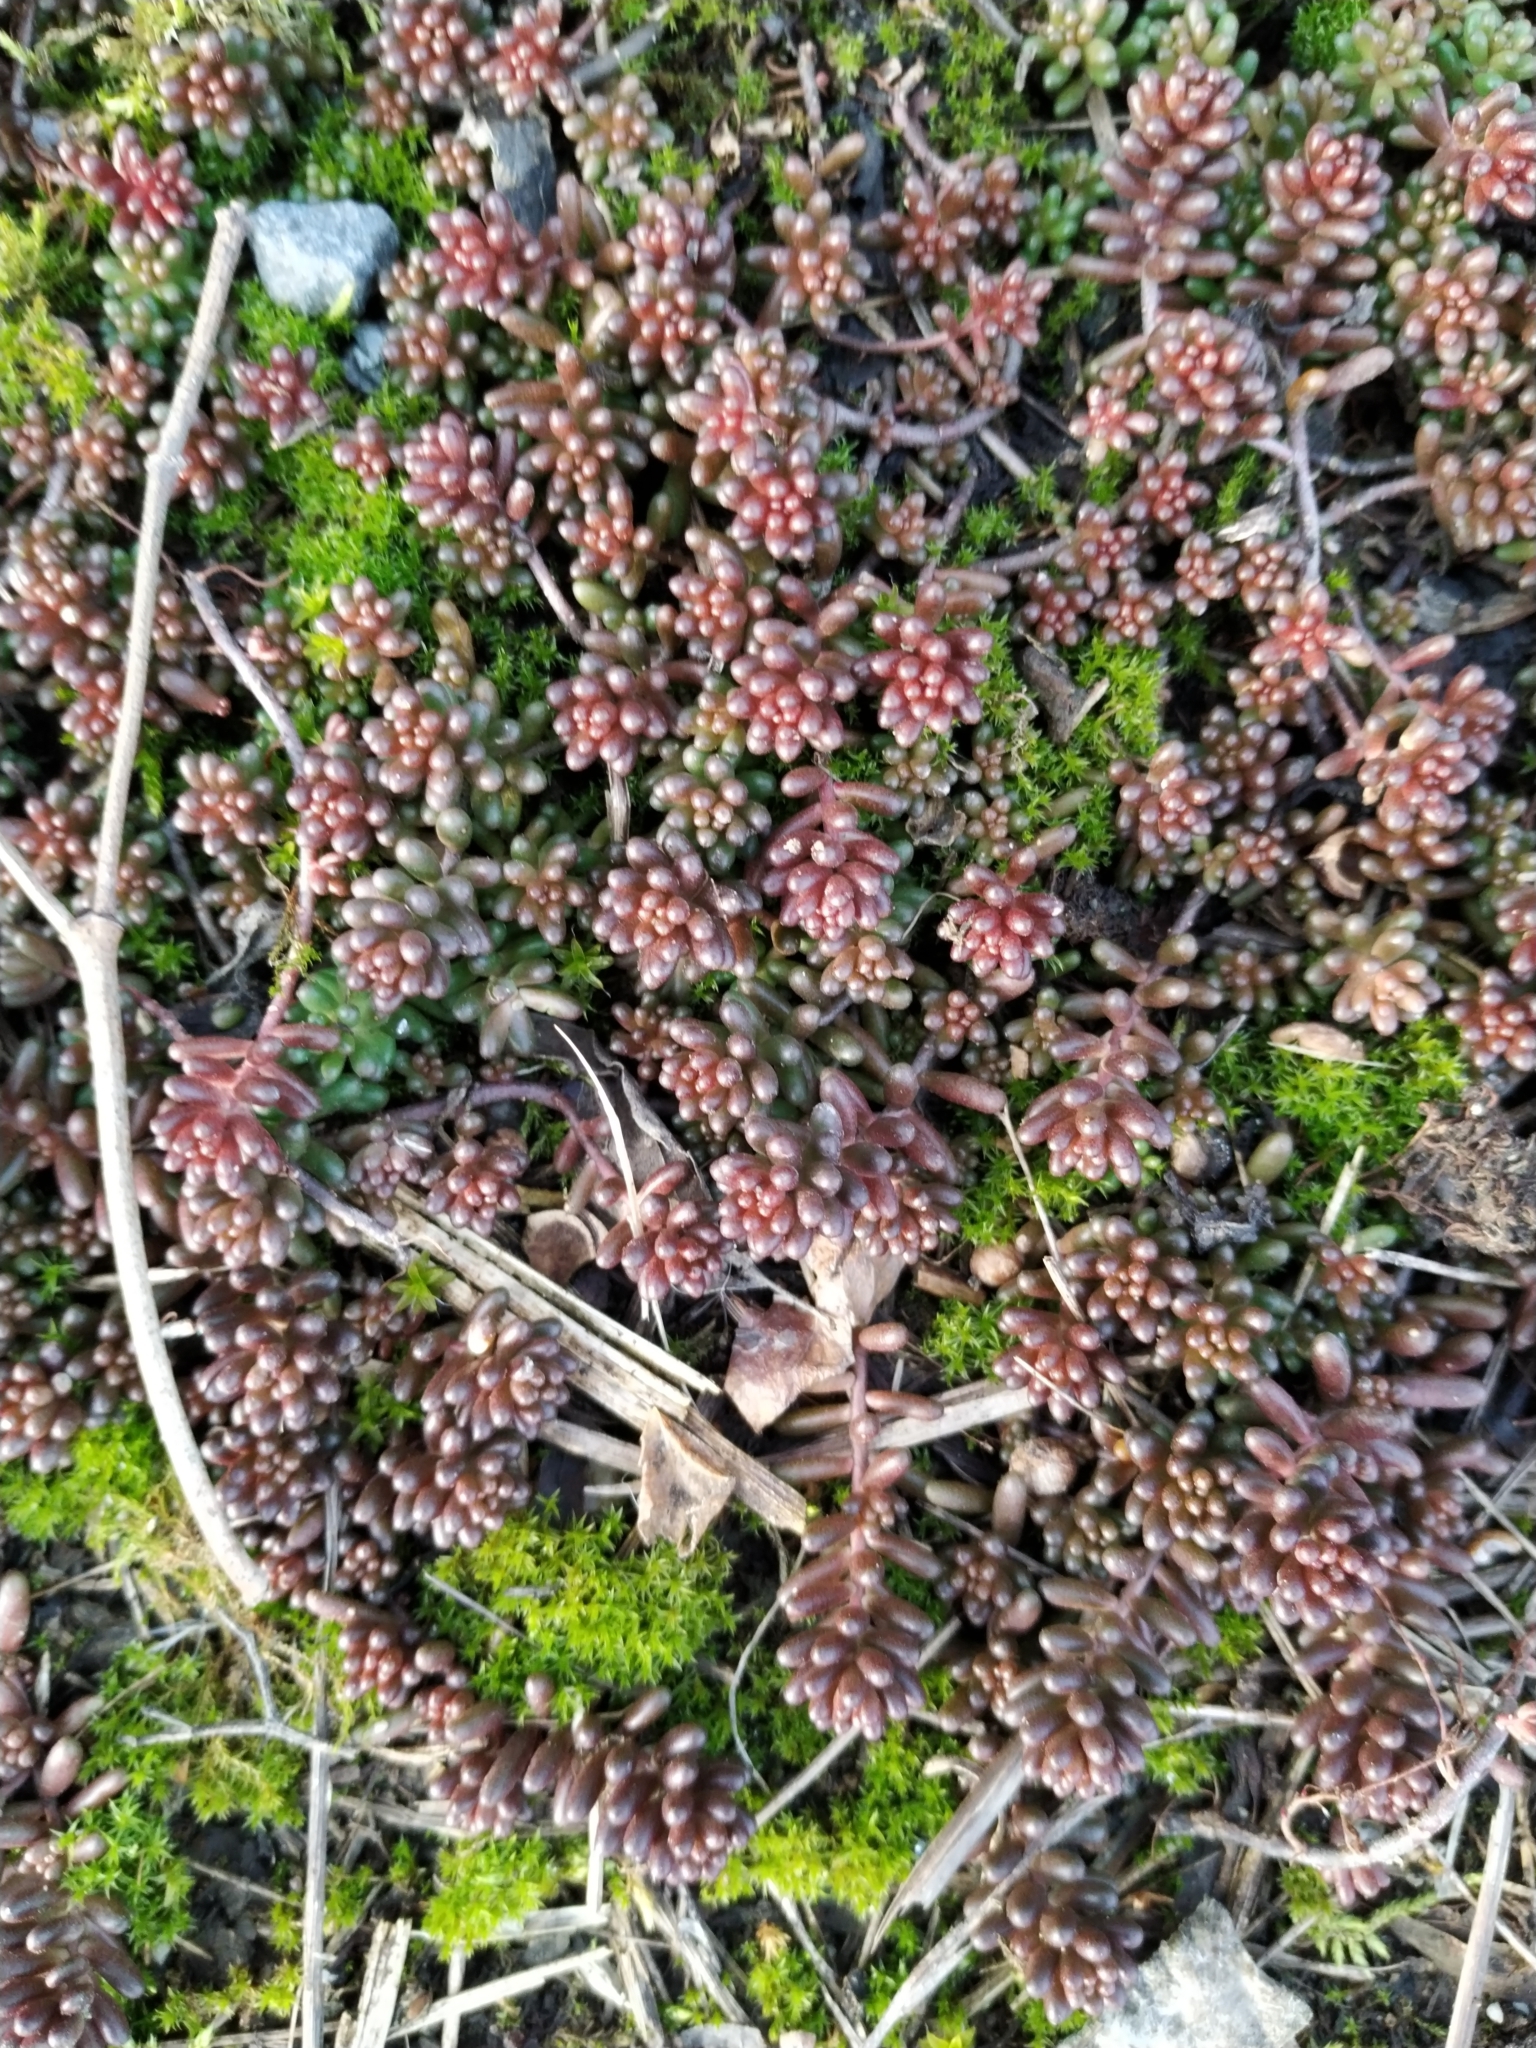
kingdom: Plantae
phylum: Tracheophyta
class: Magnoliopsida
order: Saxifragales
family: Crassulaceae
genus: Sedum
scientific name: Sedum album
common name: White stonecrop
